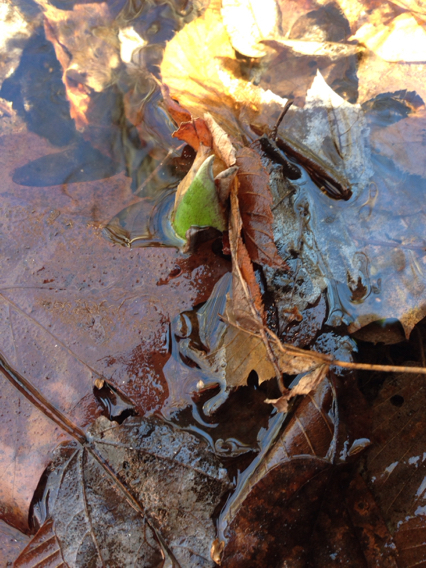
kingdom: Plantae
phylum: Tracheophyta
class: Liliopsida
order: Alismatales
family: Araceae
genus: Symplocarpus
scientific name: Symplocarpus foetidus
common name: Eastern skunk cabbage
